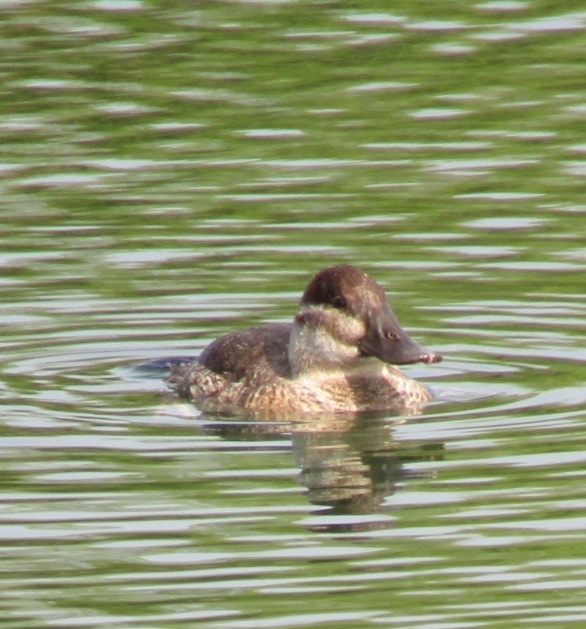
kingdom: Animalia
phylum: Chordata
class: Aves
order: Anseriformes
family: Anatidae
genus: Oxyura
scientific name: Oxyura jamaicensis
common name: Ruddy duck
